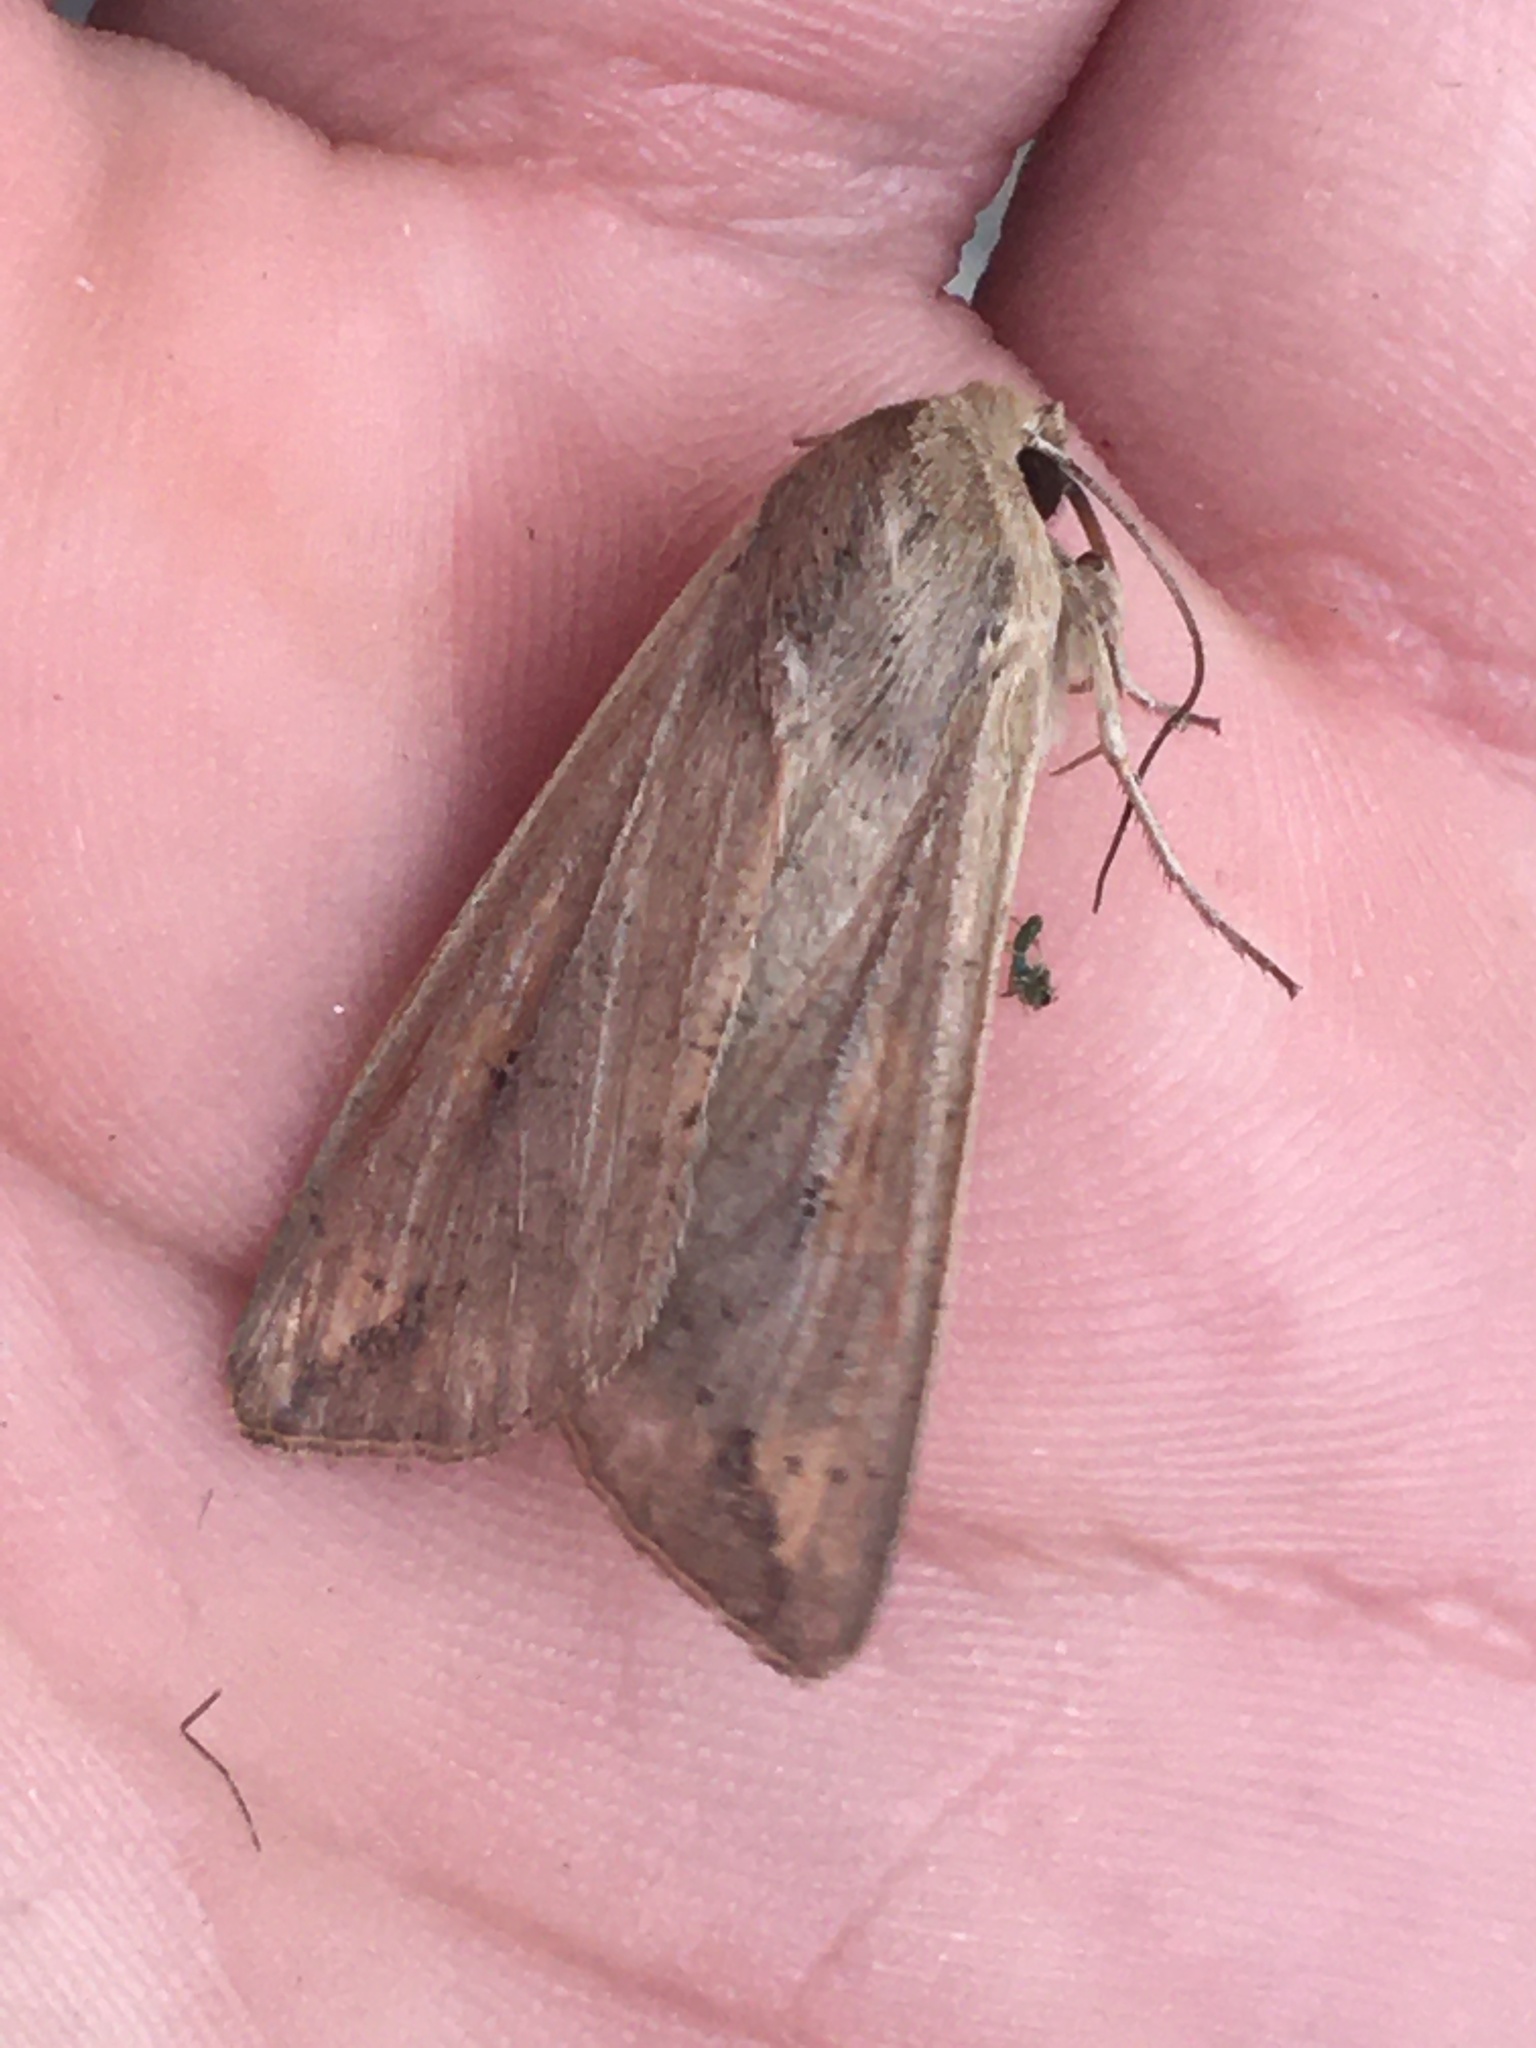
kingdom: Animalia
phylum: Arthropoda
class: Insecta
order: Lepidoptera
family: Noctuidae
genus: Mythimna
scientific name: Mythimna unipuncta
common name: White-speck
